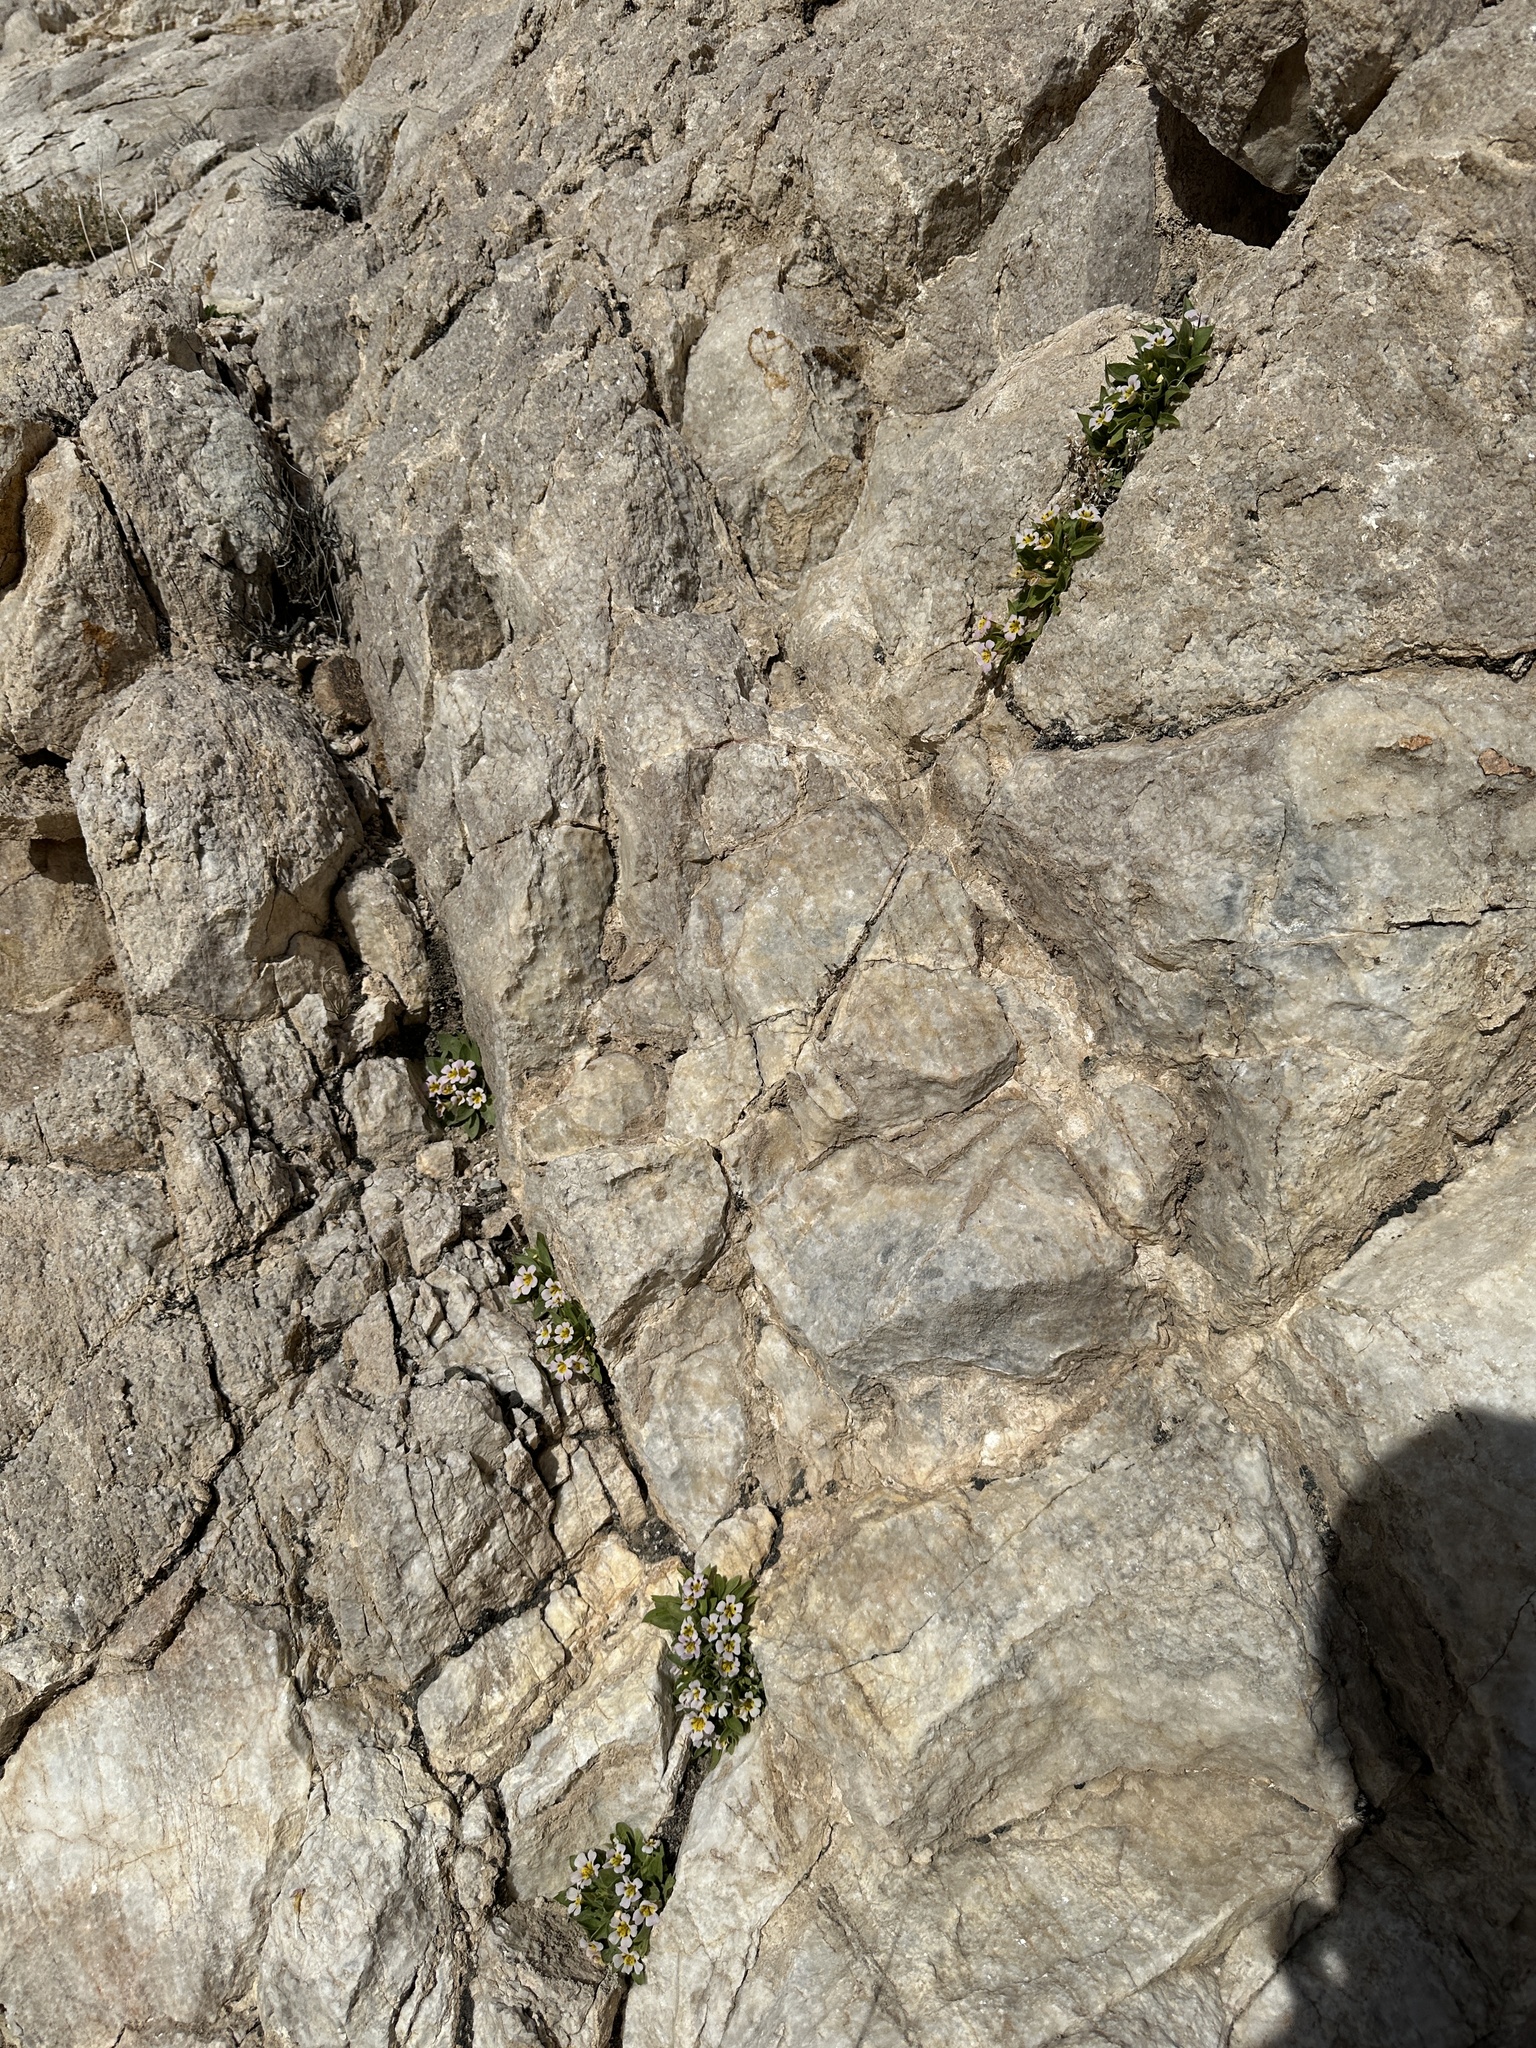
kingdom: Plantae
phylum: Tracheophyta
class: Magnoliopsida
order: Lamiales
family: Phrymaceae
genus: Diplacus
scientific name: Diplacus rupicola
